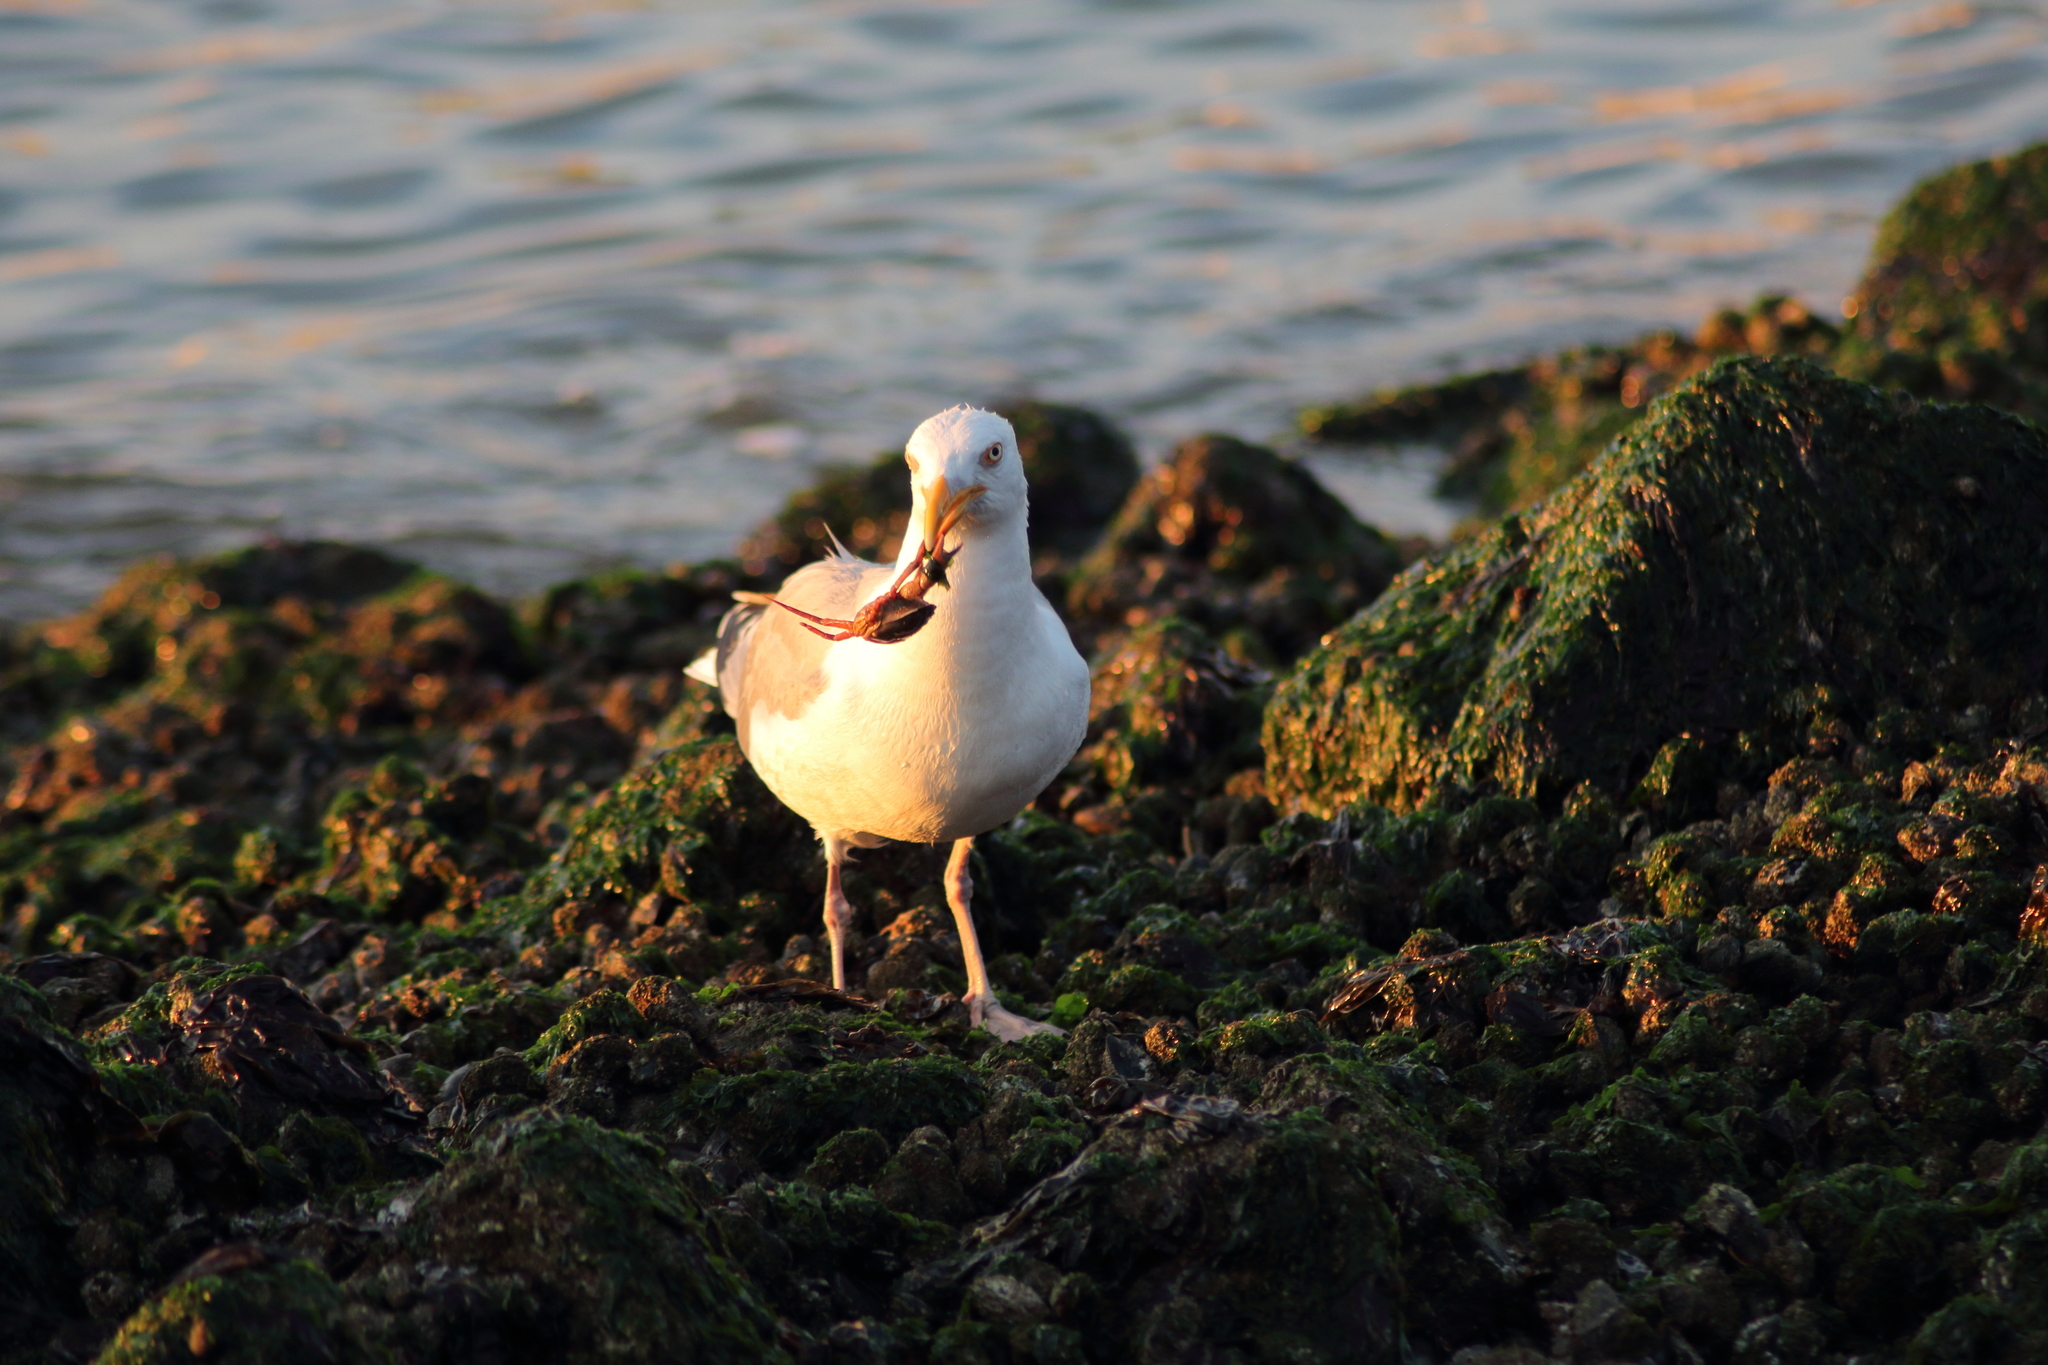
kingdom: Animalia
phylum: Chordata
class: Aves
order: Charadriiformes
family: Laridae
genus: Larus
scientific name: Larus argentatus
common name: Herring gull
